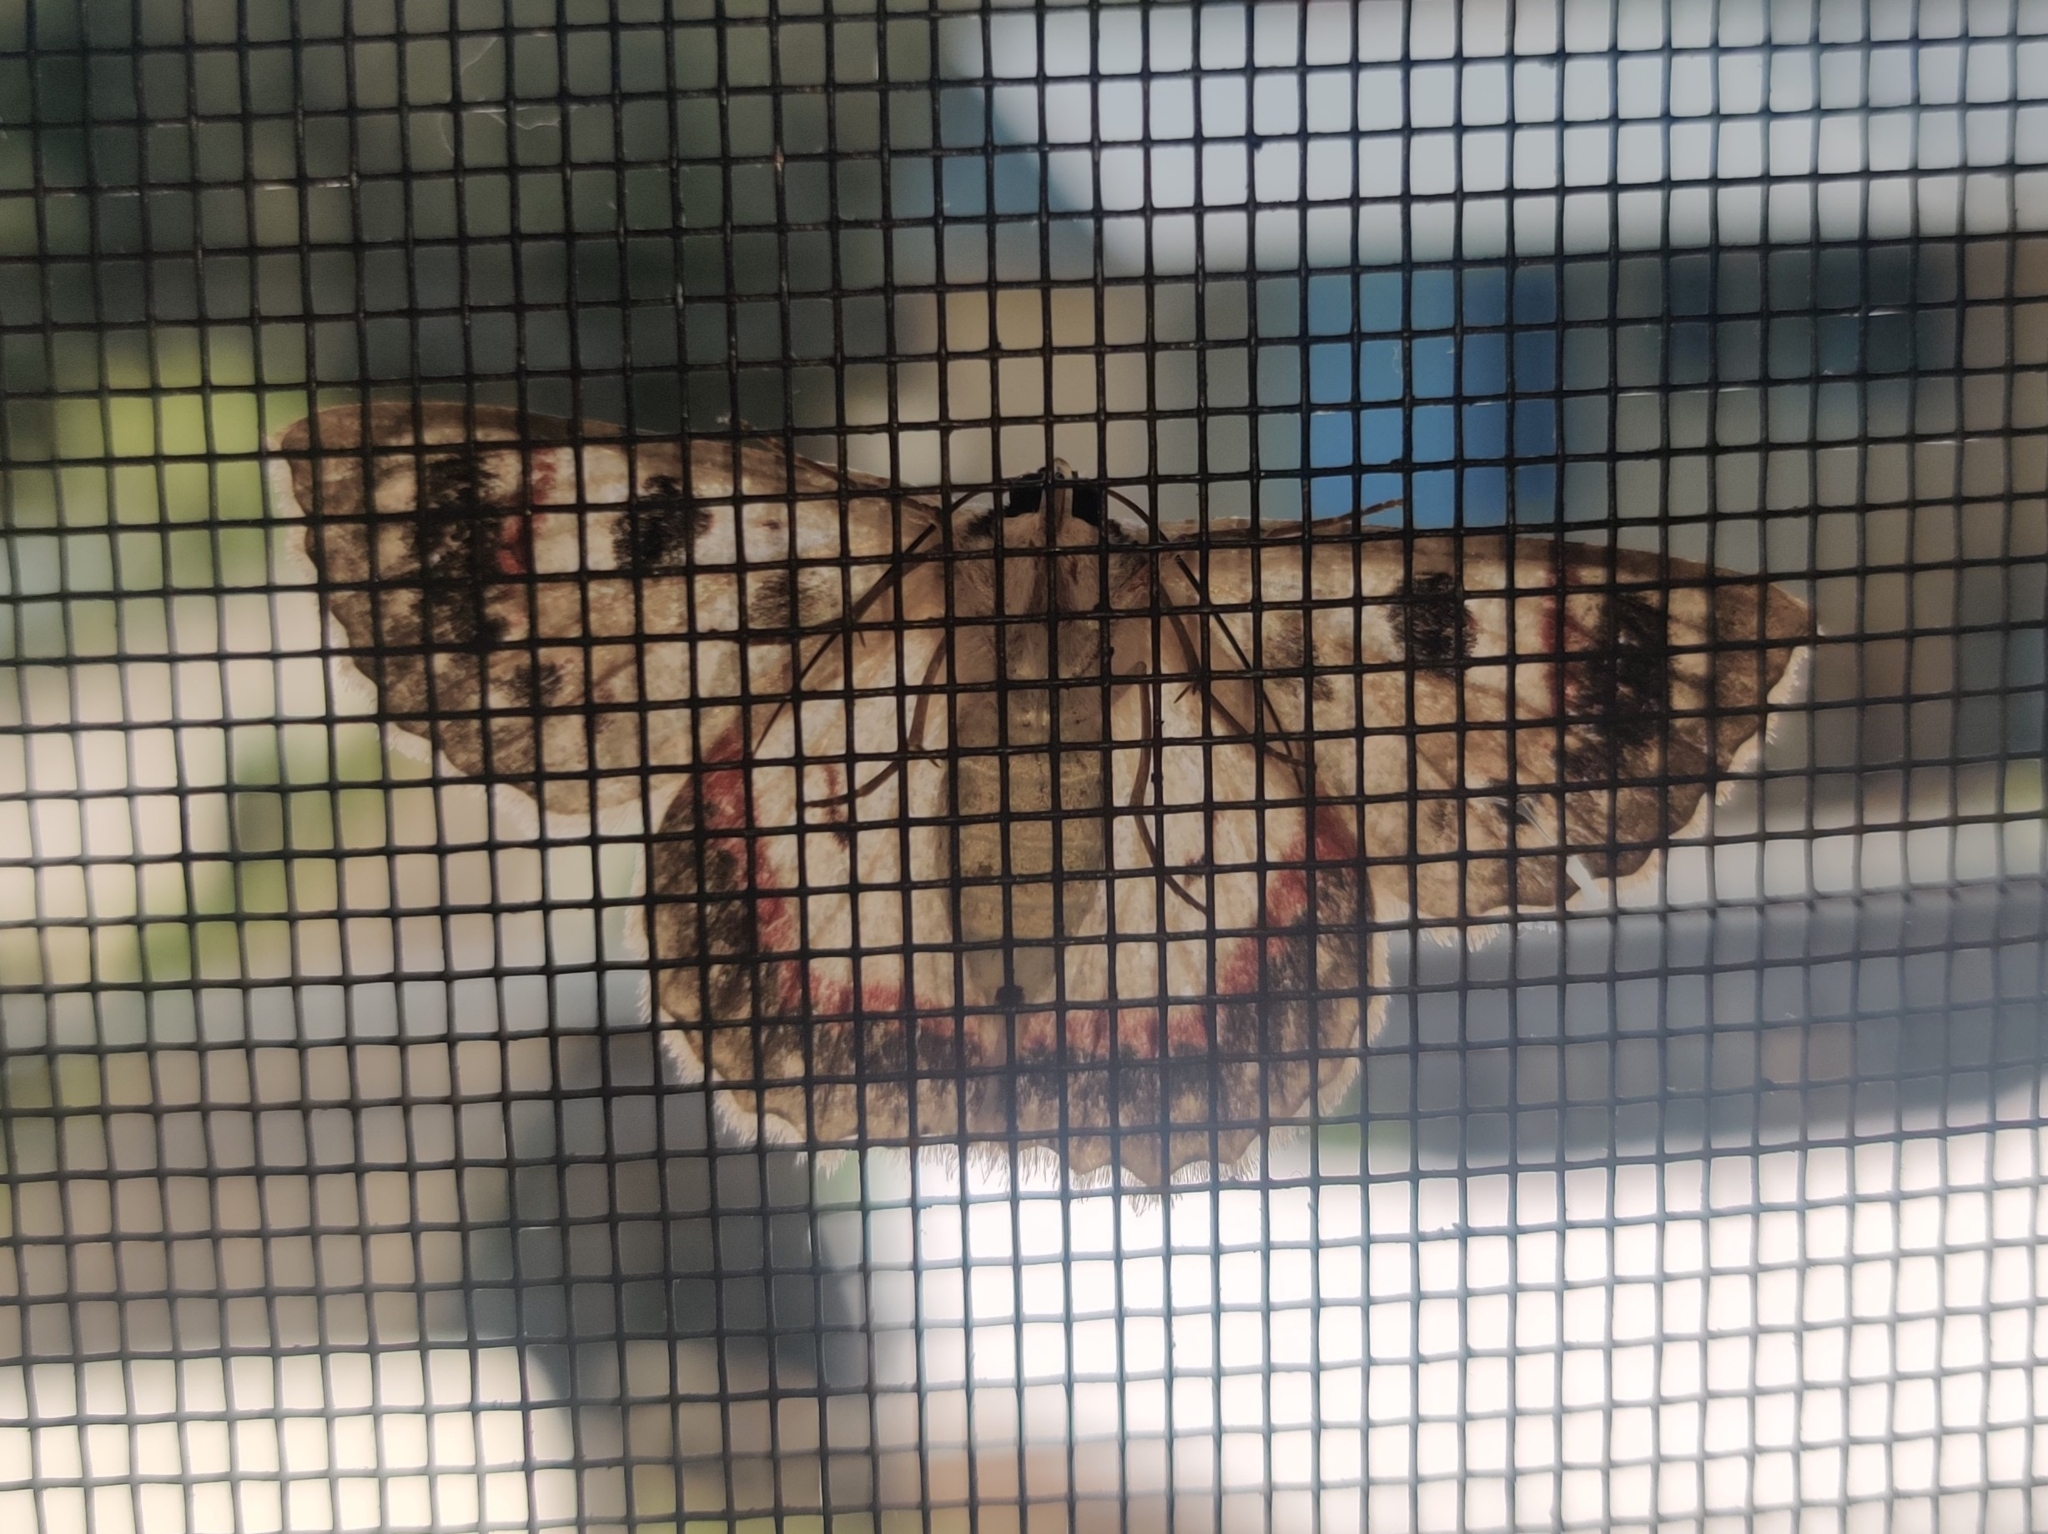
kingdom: Animalia
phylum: Arthropoda
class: Insecta
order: Lepidoptera
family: Geometridae
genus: Crypsiphona
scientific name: Crypsiphona ocultaria
